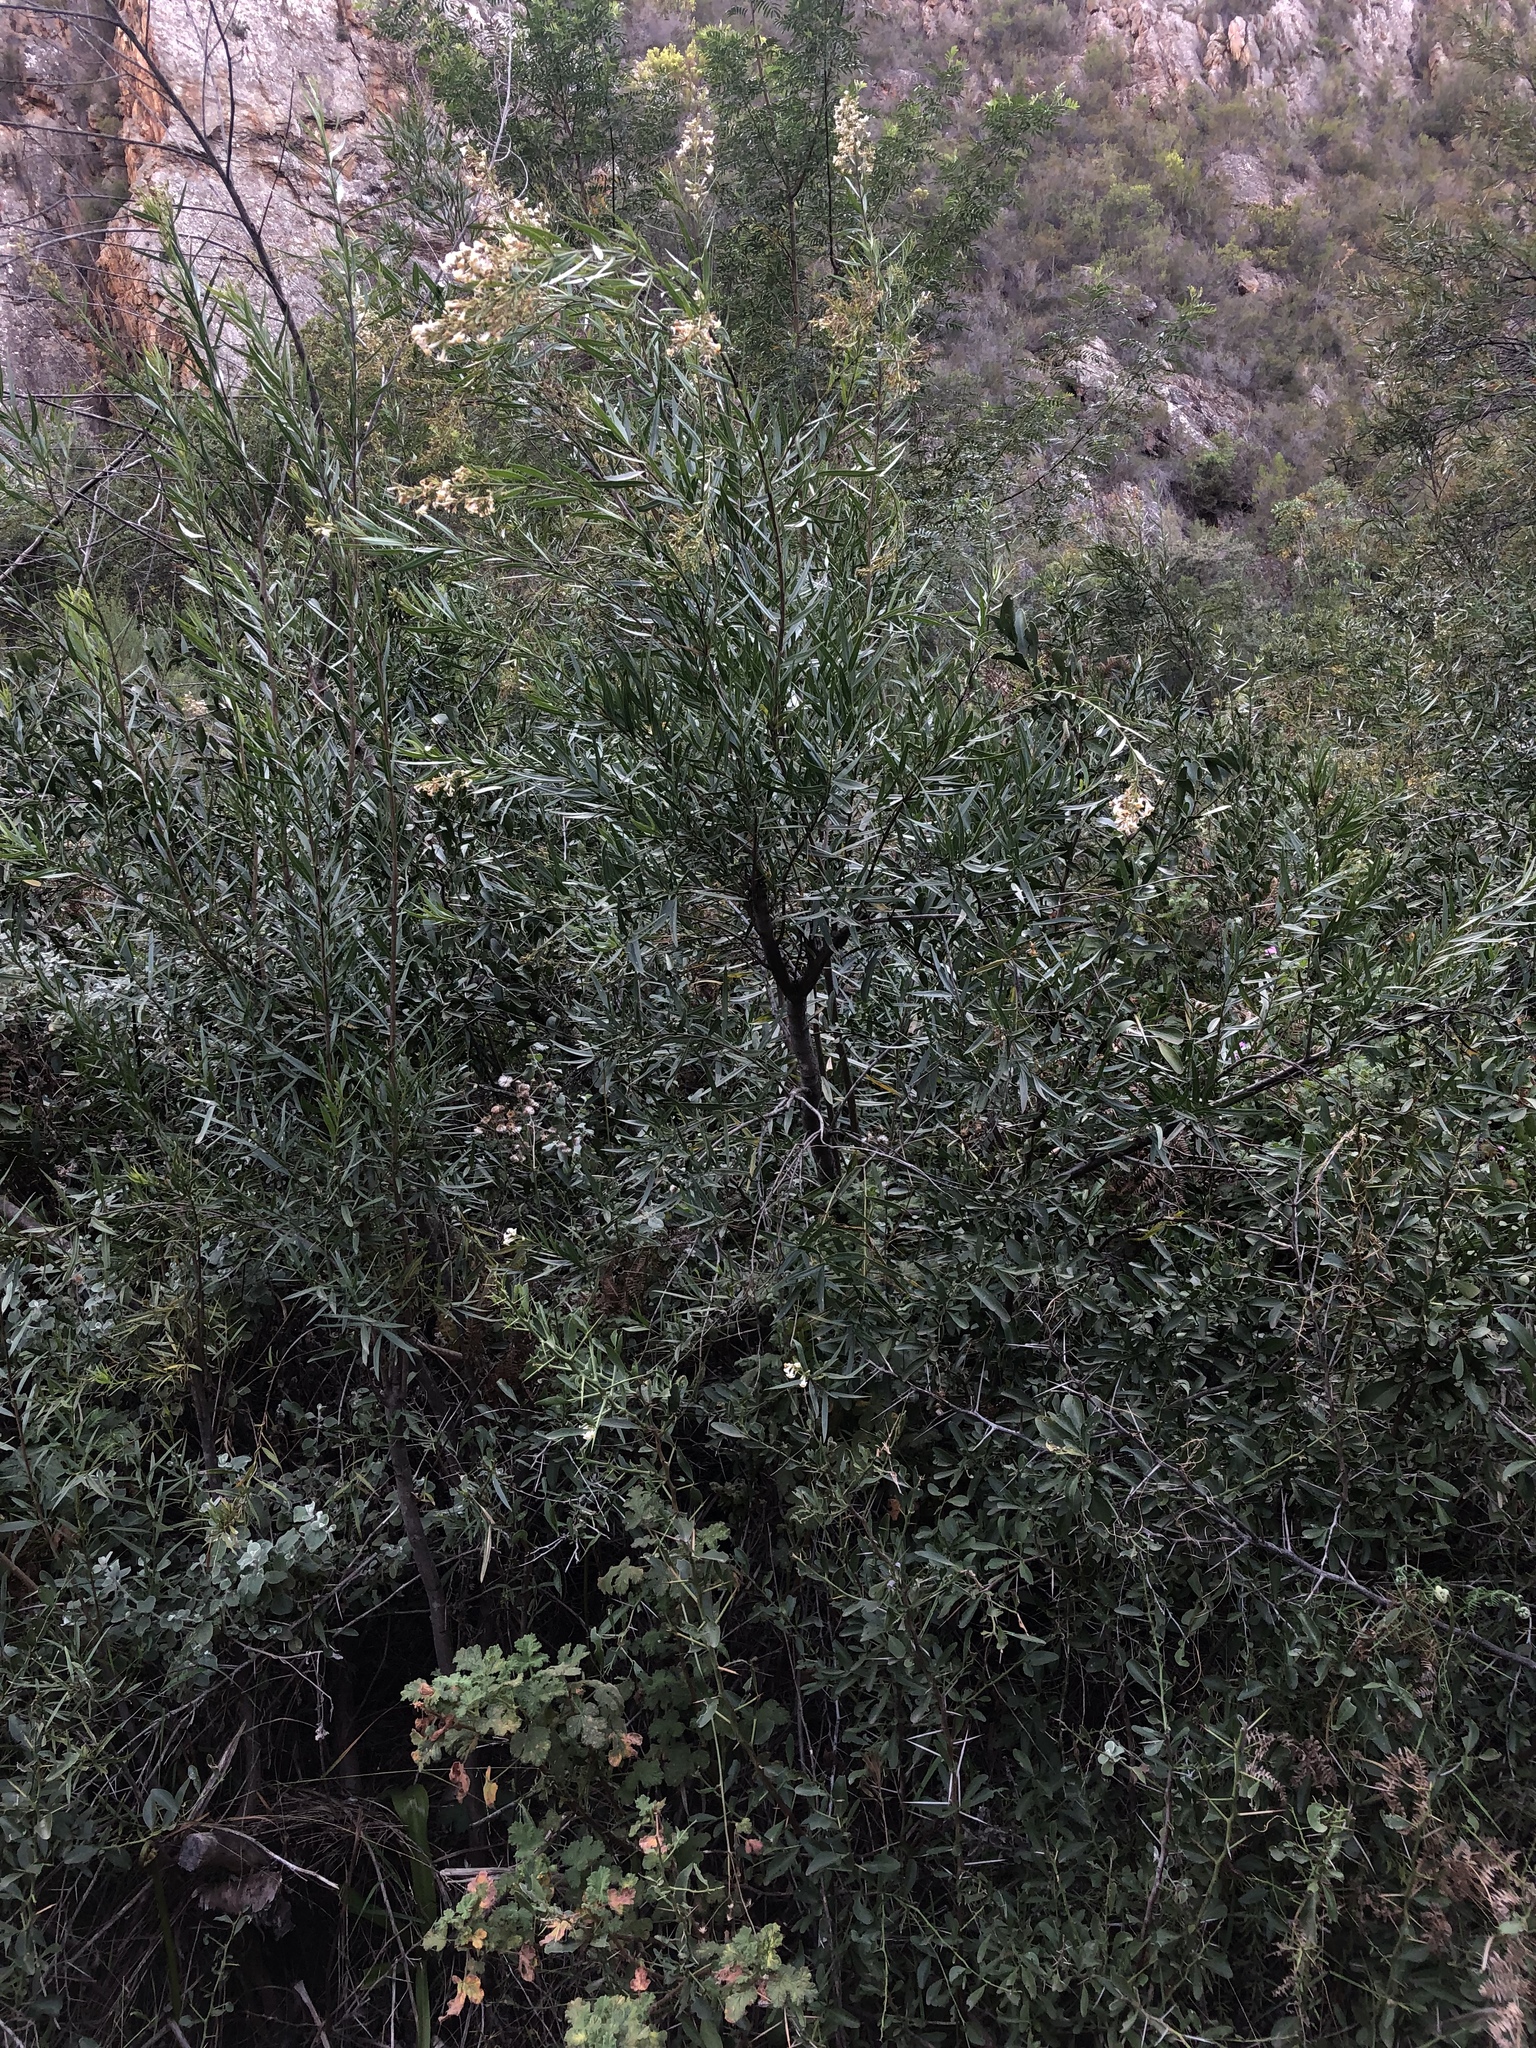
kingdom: Plantae
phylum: Tracheophyta
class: Magnoliopsida
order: Lamiales
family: Scrophulariaceae
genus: Freylinia
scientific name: Freylinia lanceolata
